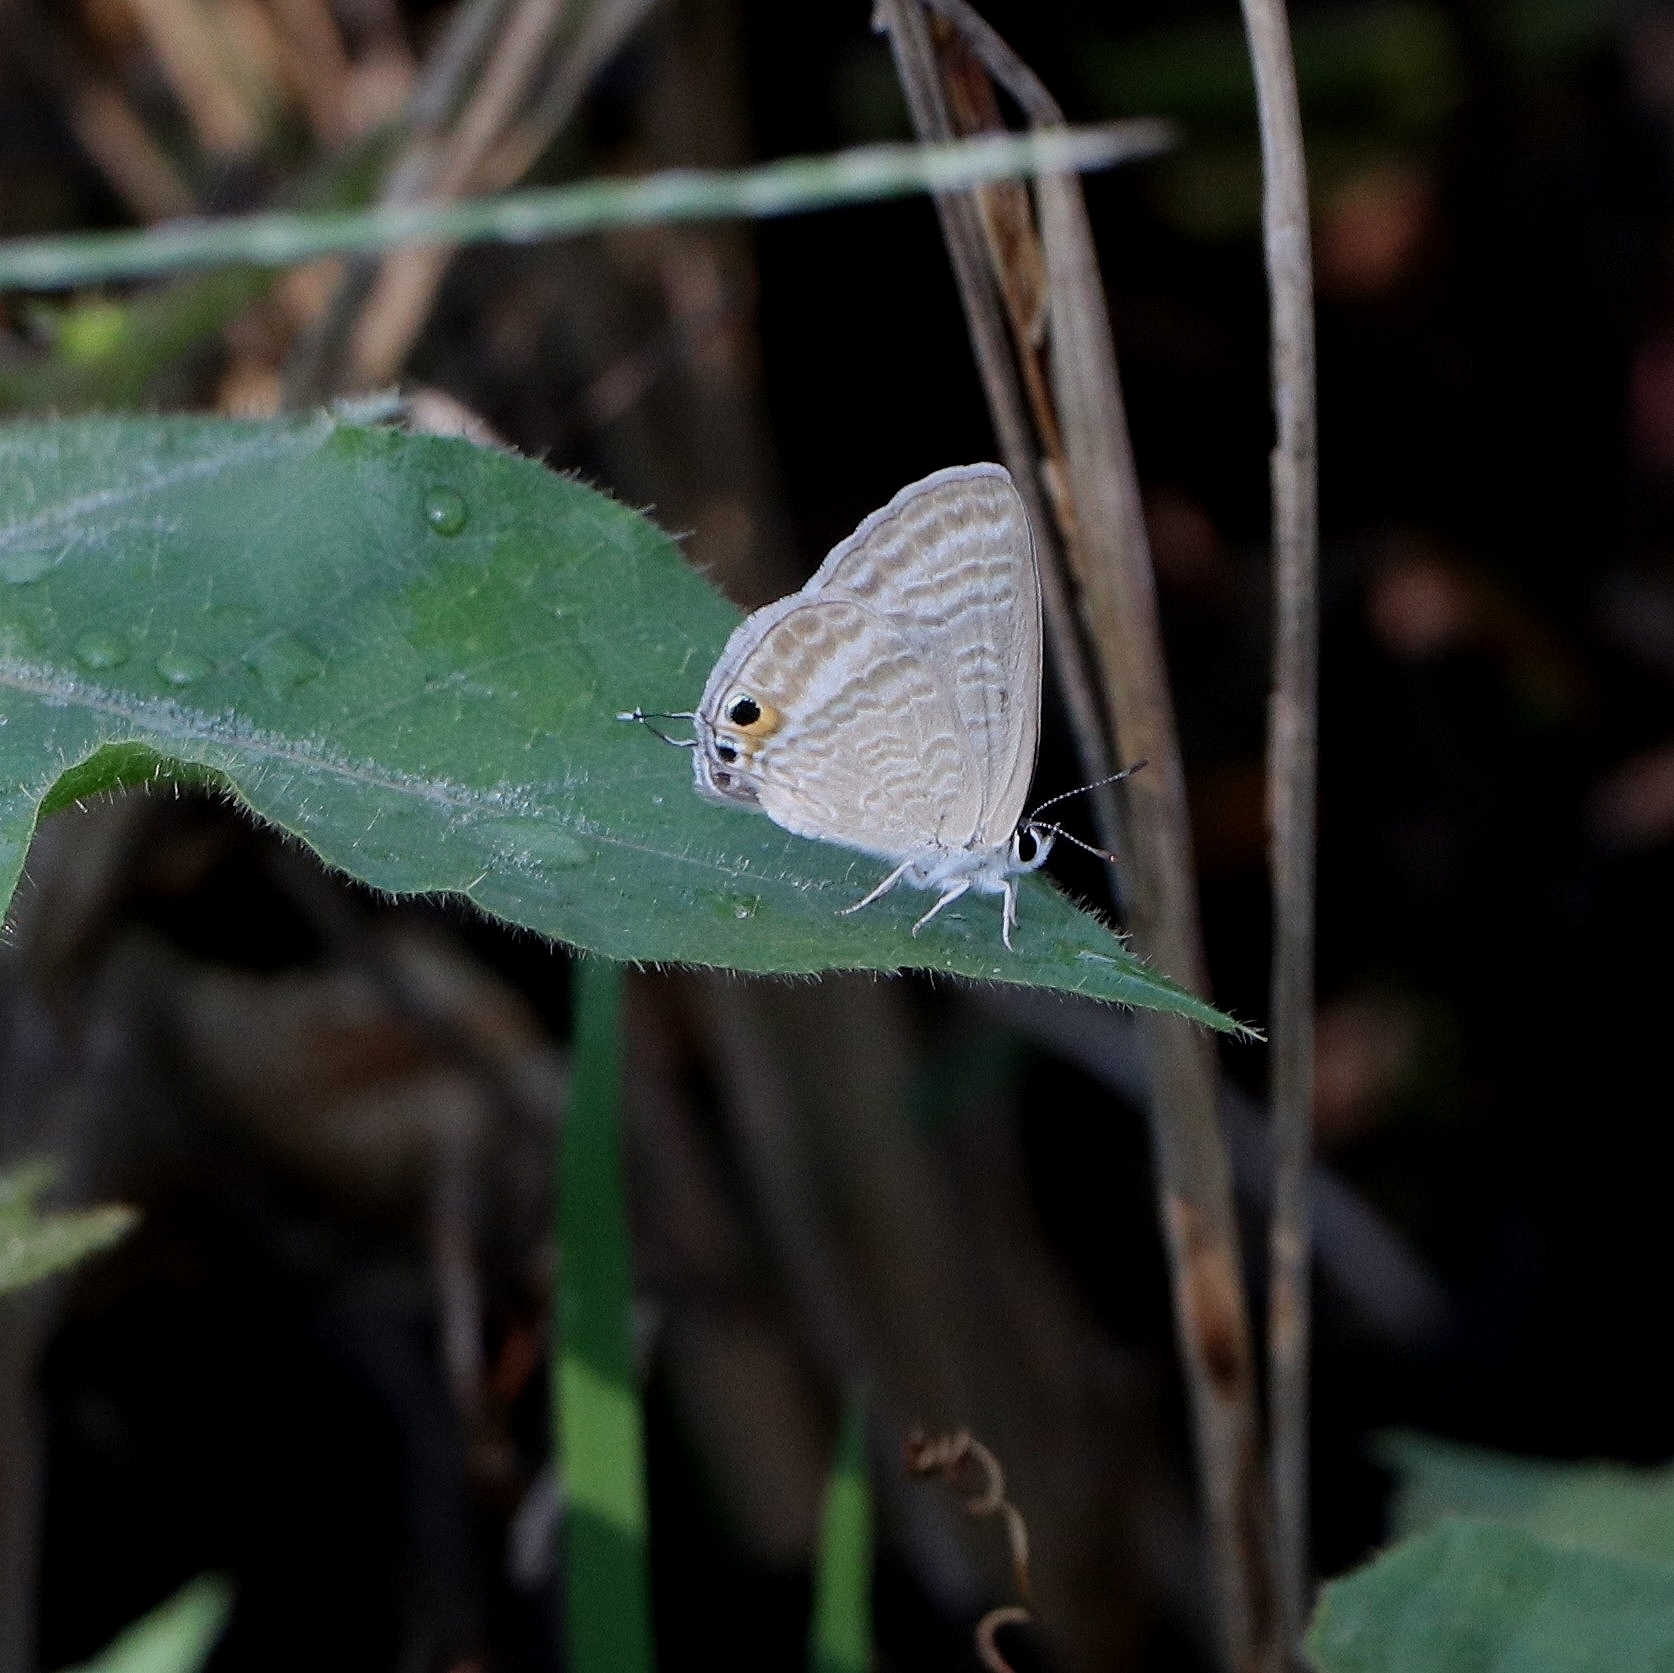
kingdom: Animalia
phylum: Arthropoda
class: Insecta
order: Lepidoptera
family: Lycaenidae
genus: Lampides
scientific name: Lampides boeticus
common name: Long-tailed blue
